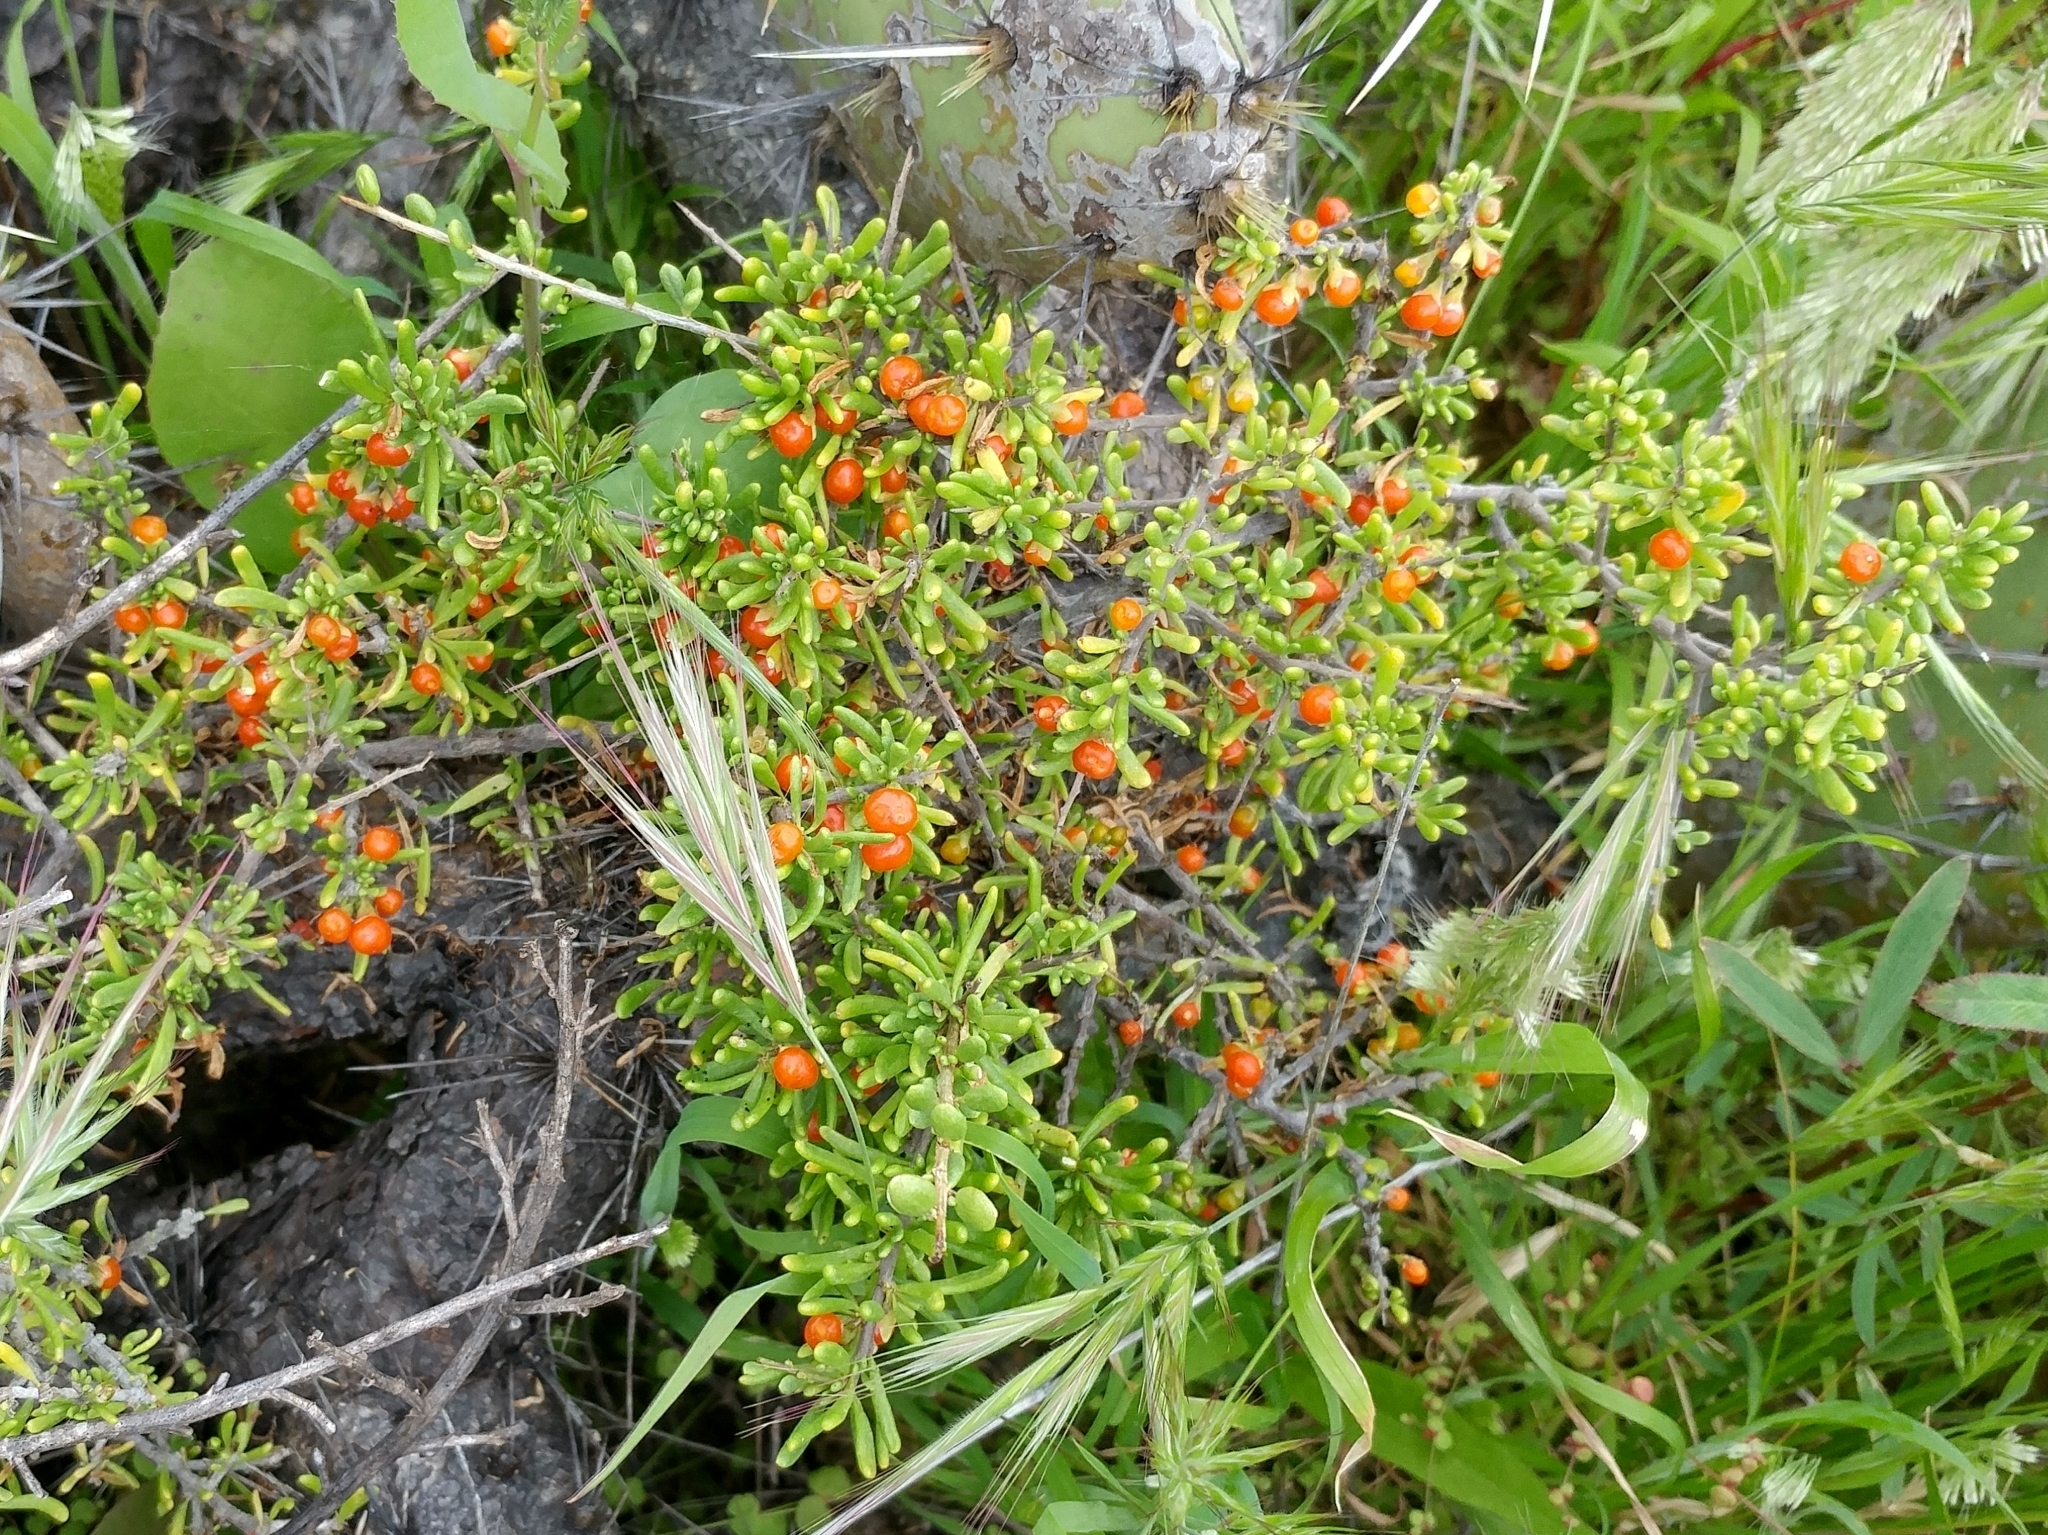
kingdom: Plantae
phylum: Tracheophyta
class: Magnoliopsida
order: Solanales
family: Solanaceae
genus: Lycium
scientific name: Lycium californicum
